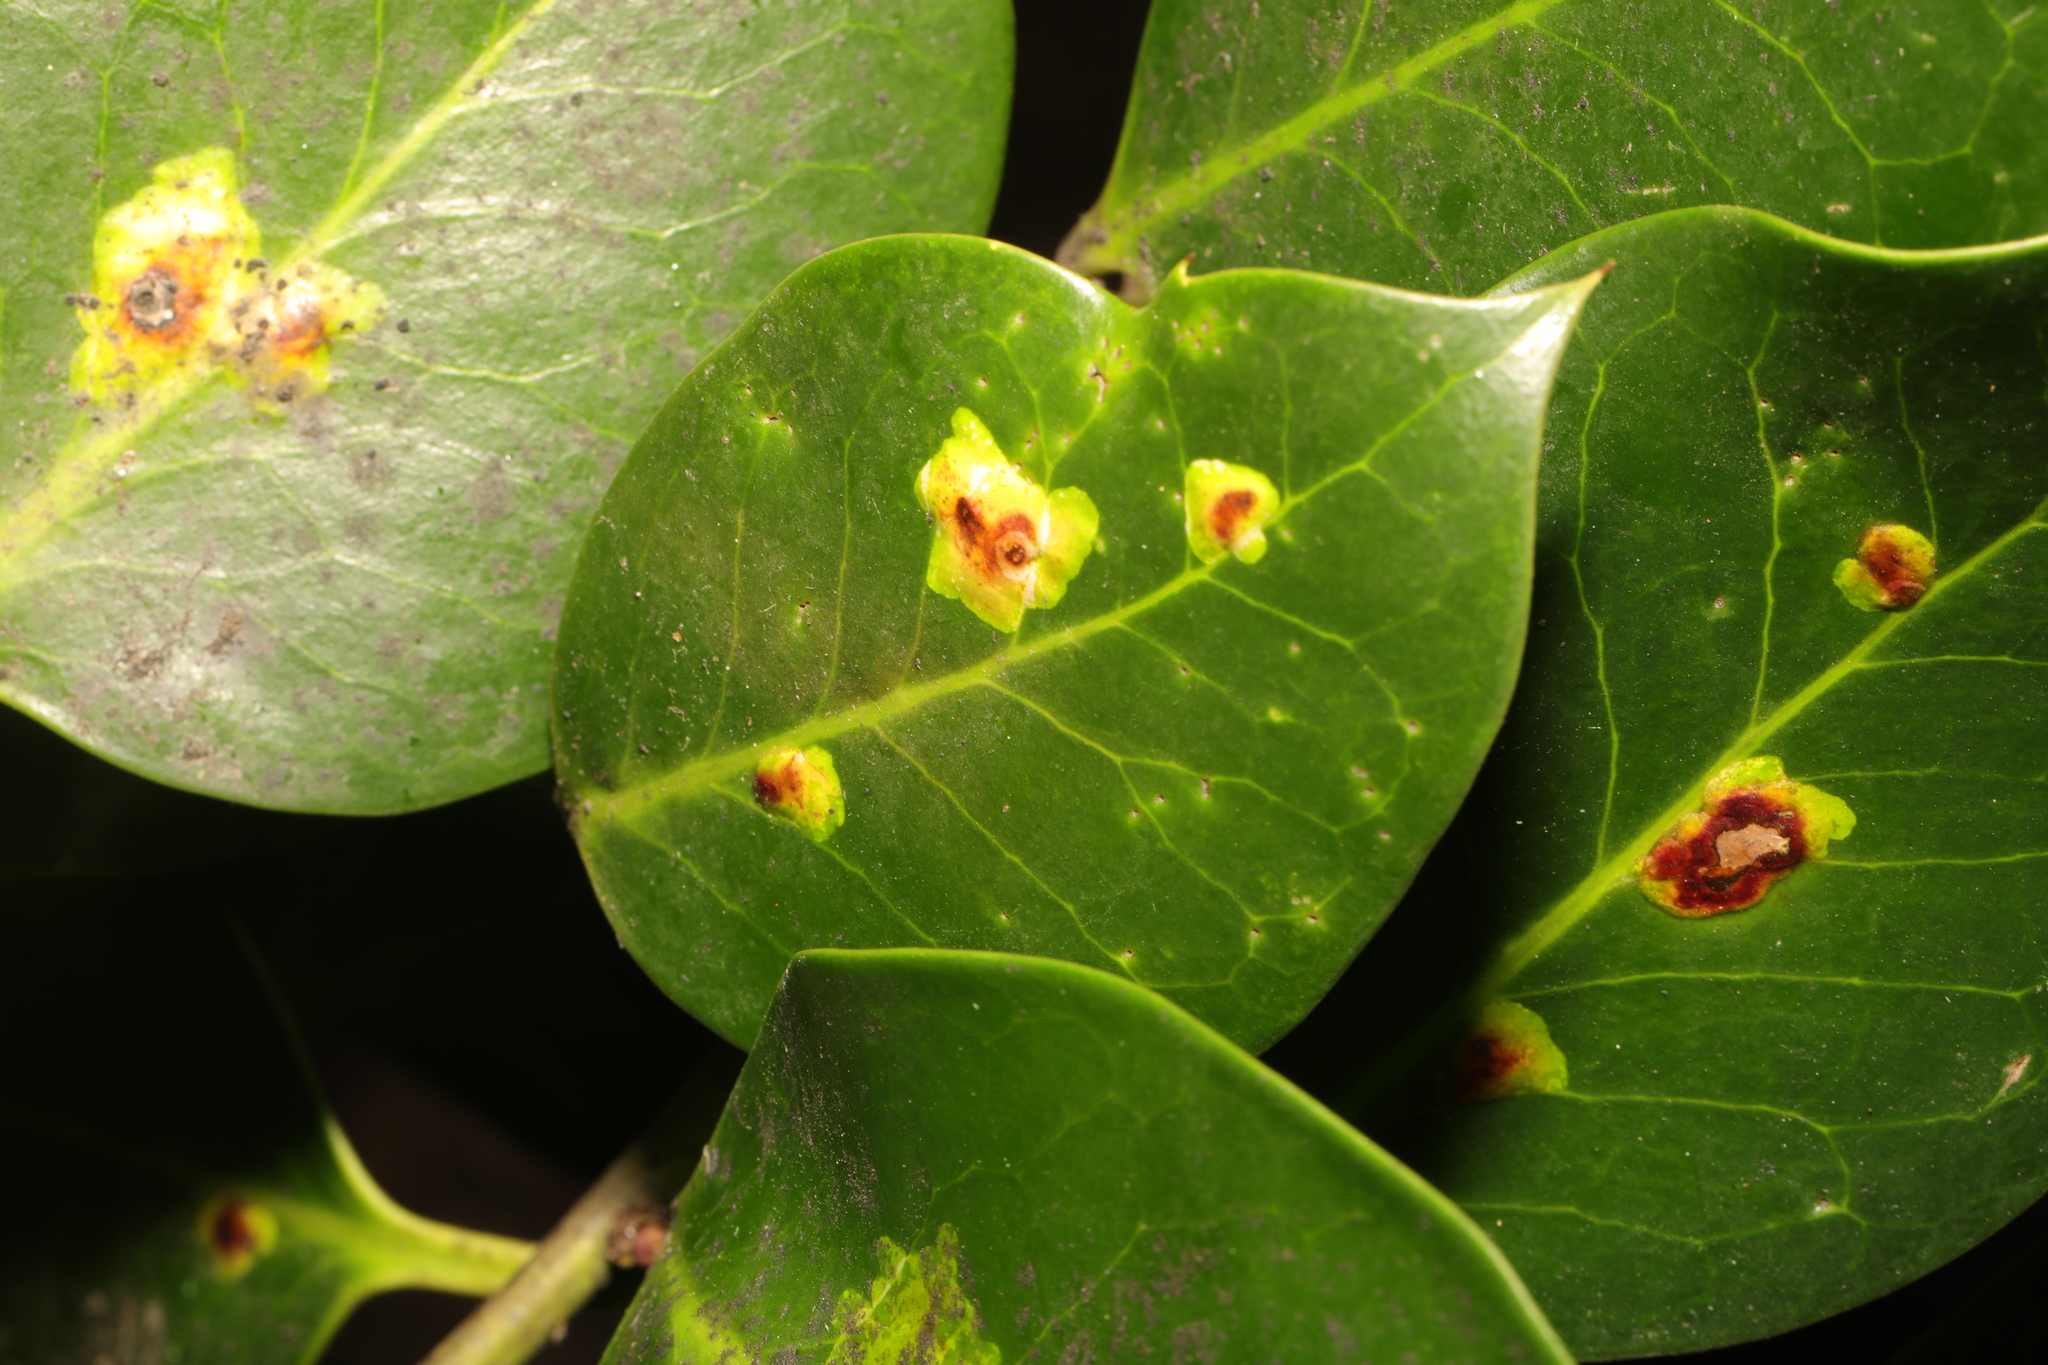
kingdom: Animalia
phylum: Arthropoda
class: Insecta
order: Diptera
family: Agromyzidae
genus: Phytomyza
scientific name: Phytomyza ilicis
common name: Holly leafminer
